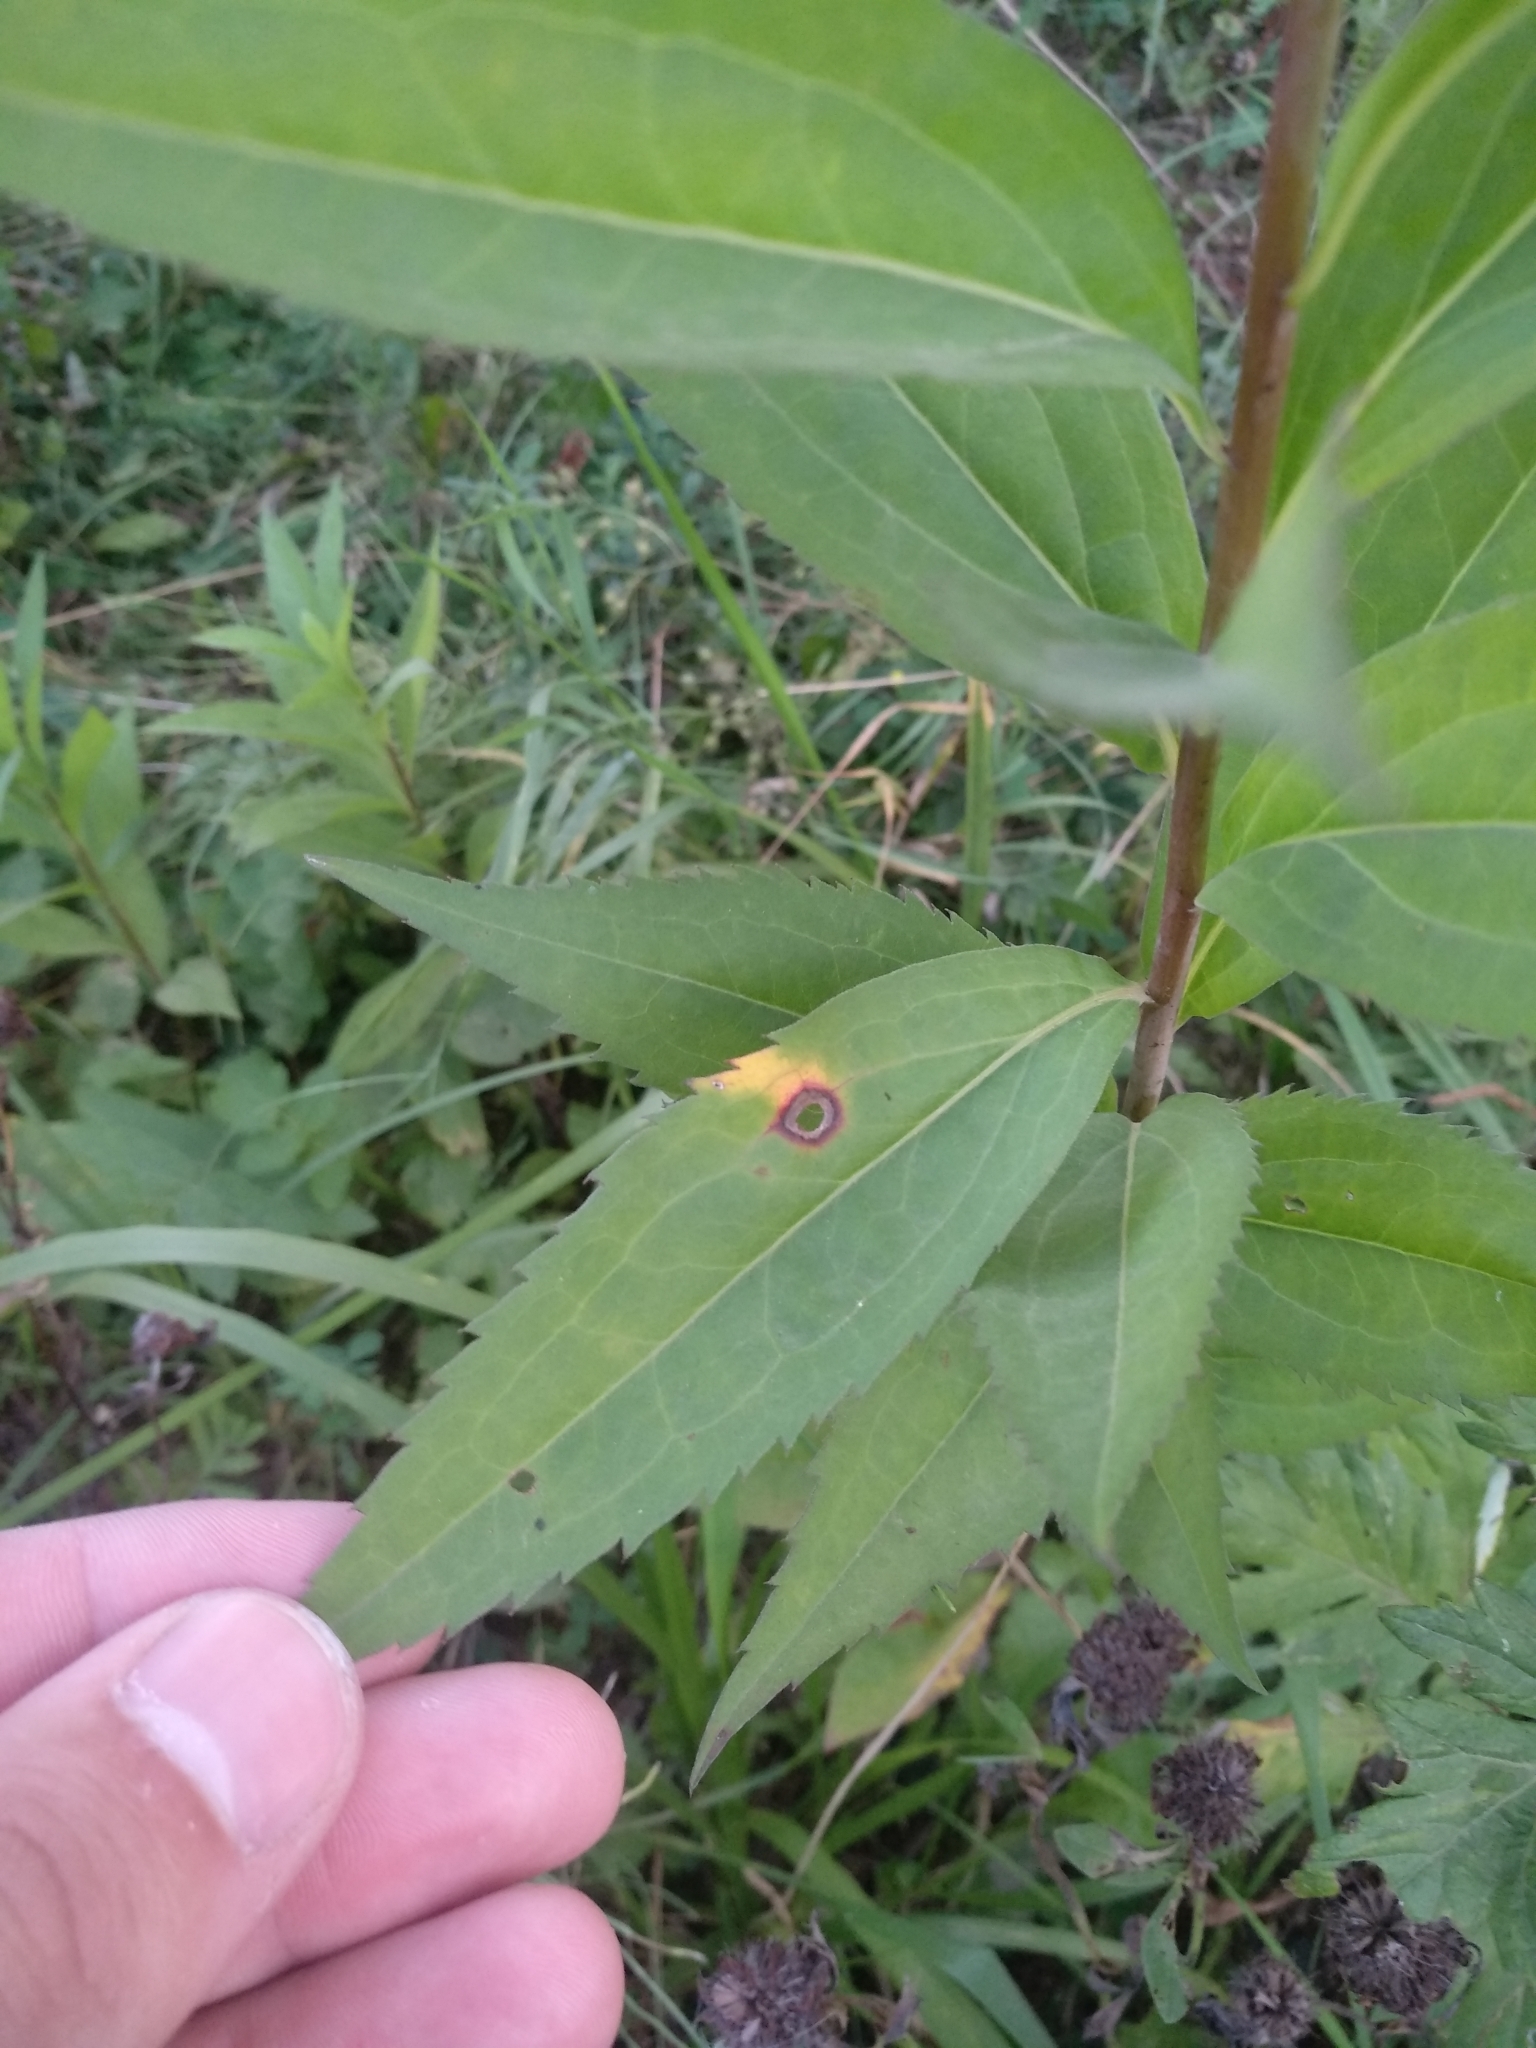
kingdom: Plantae
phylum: Tracheophyta
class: Magnoliopsida
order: Asterales
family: Asteraceae
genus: Solidago
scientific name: Solidago gigantea
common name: Giant goldenrod
